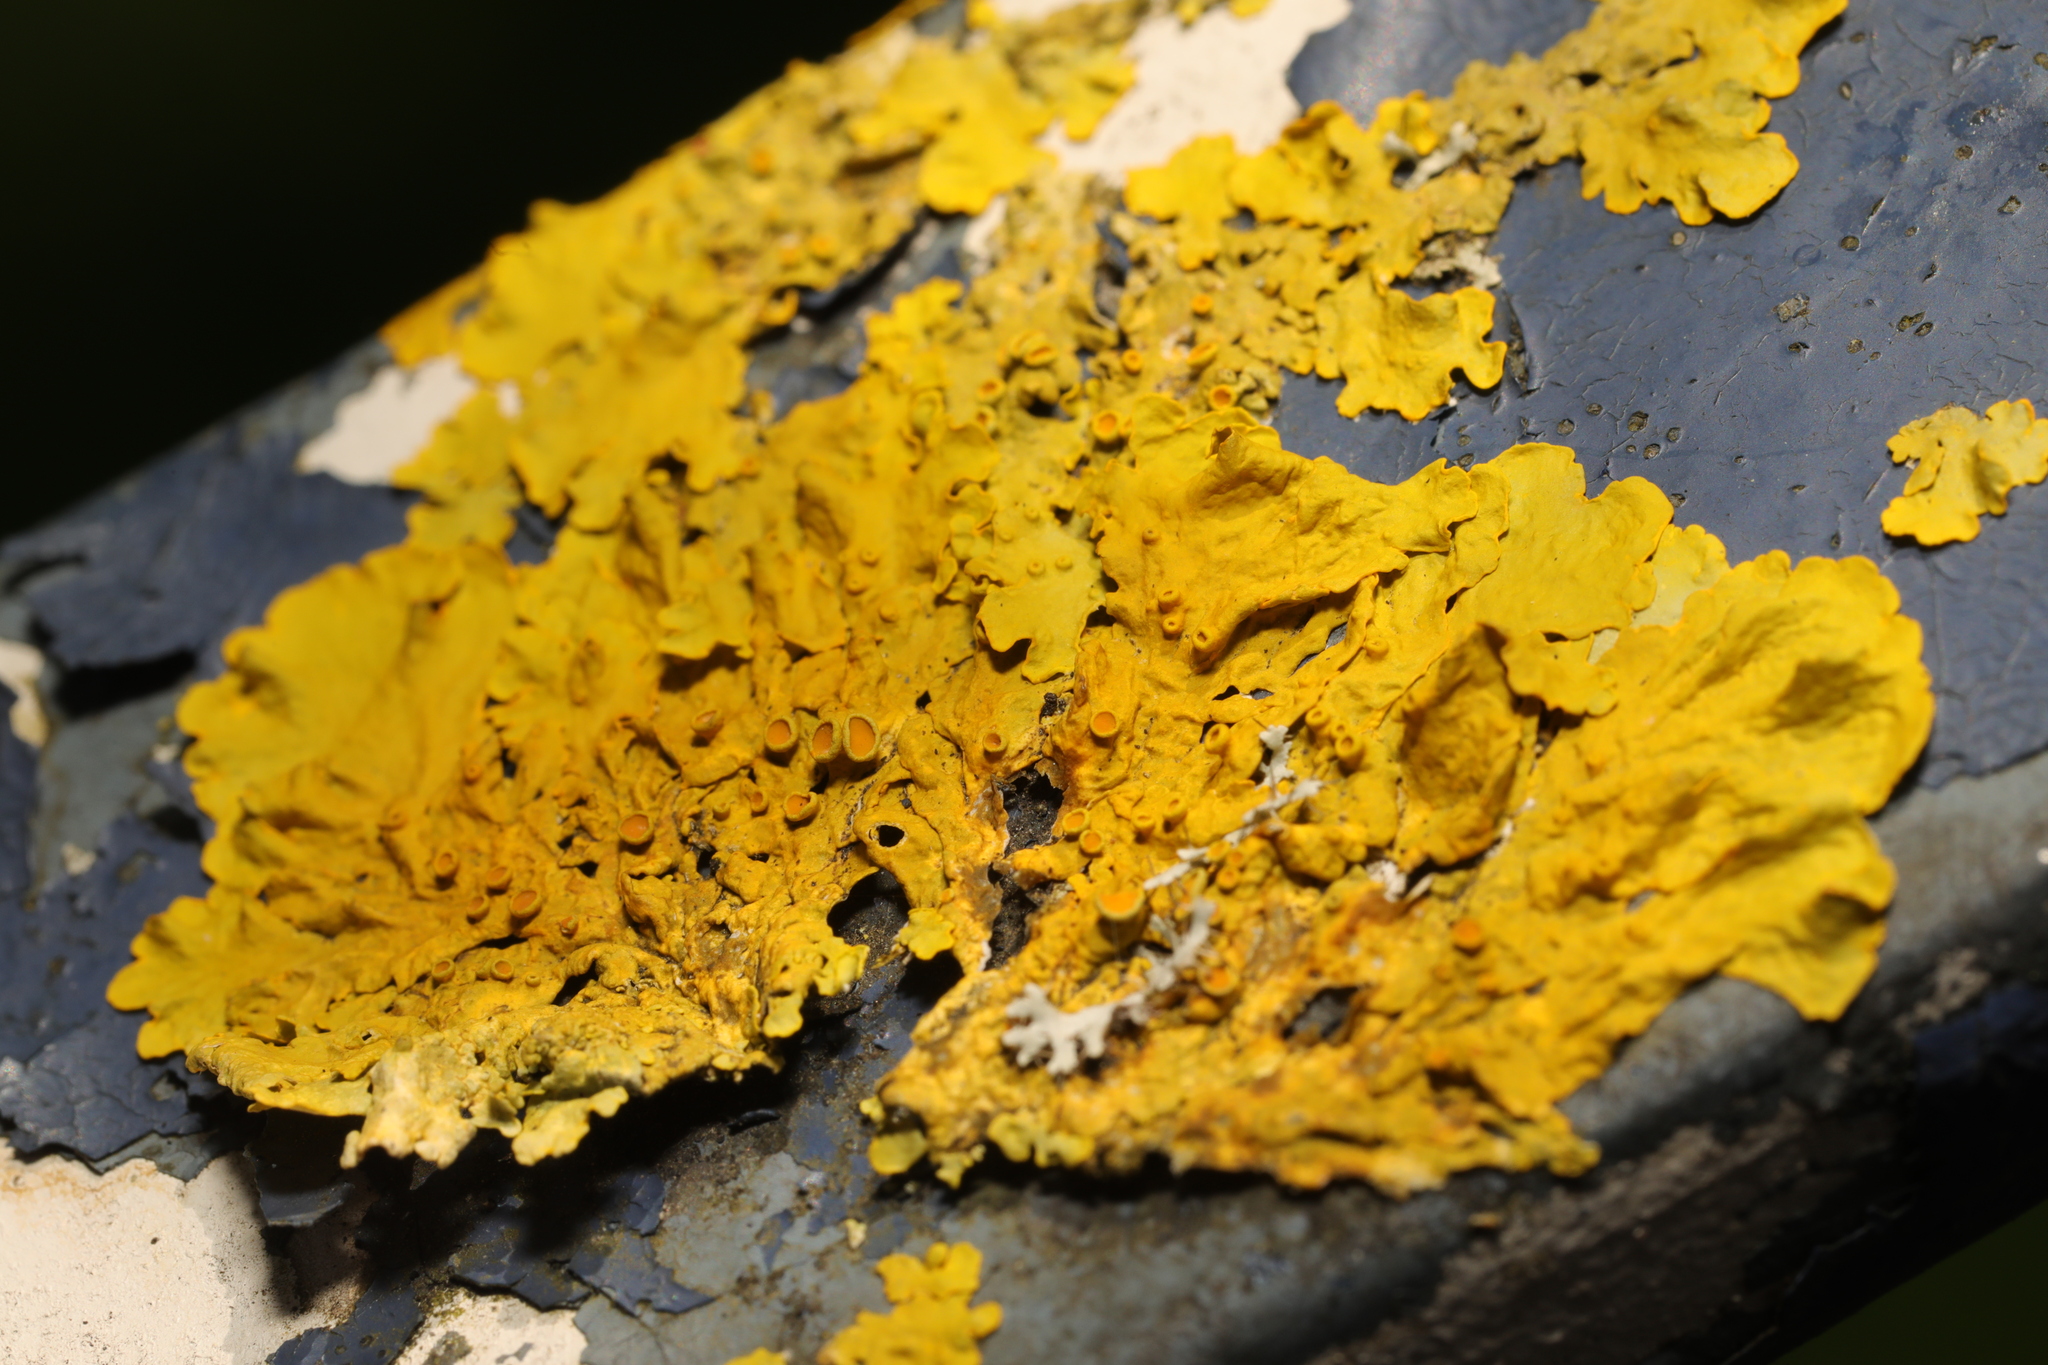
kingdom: Fungi
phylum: Ascomycota
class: Lecanoromycetes
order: Teloschistales
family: Teloschistaceae
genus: Xanthoria
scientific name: Xanthoria parietina
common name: Common orange lichen
